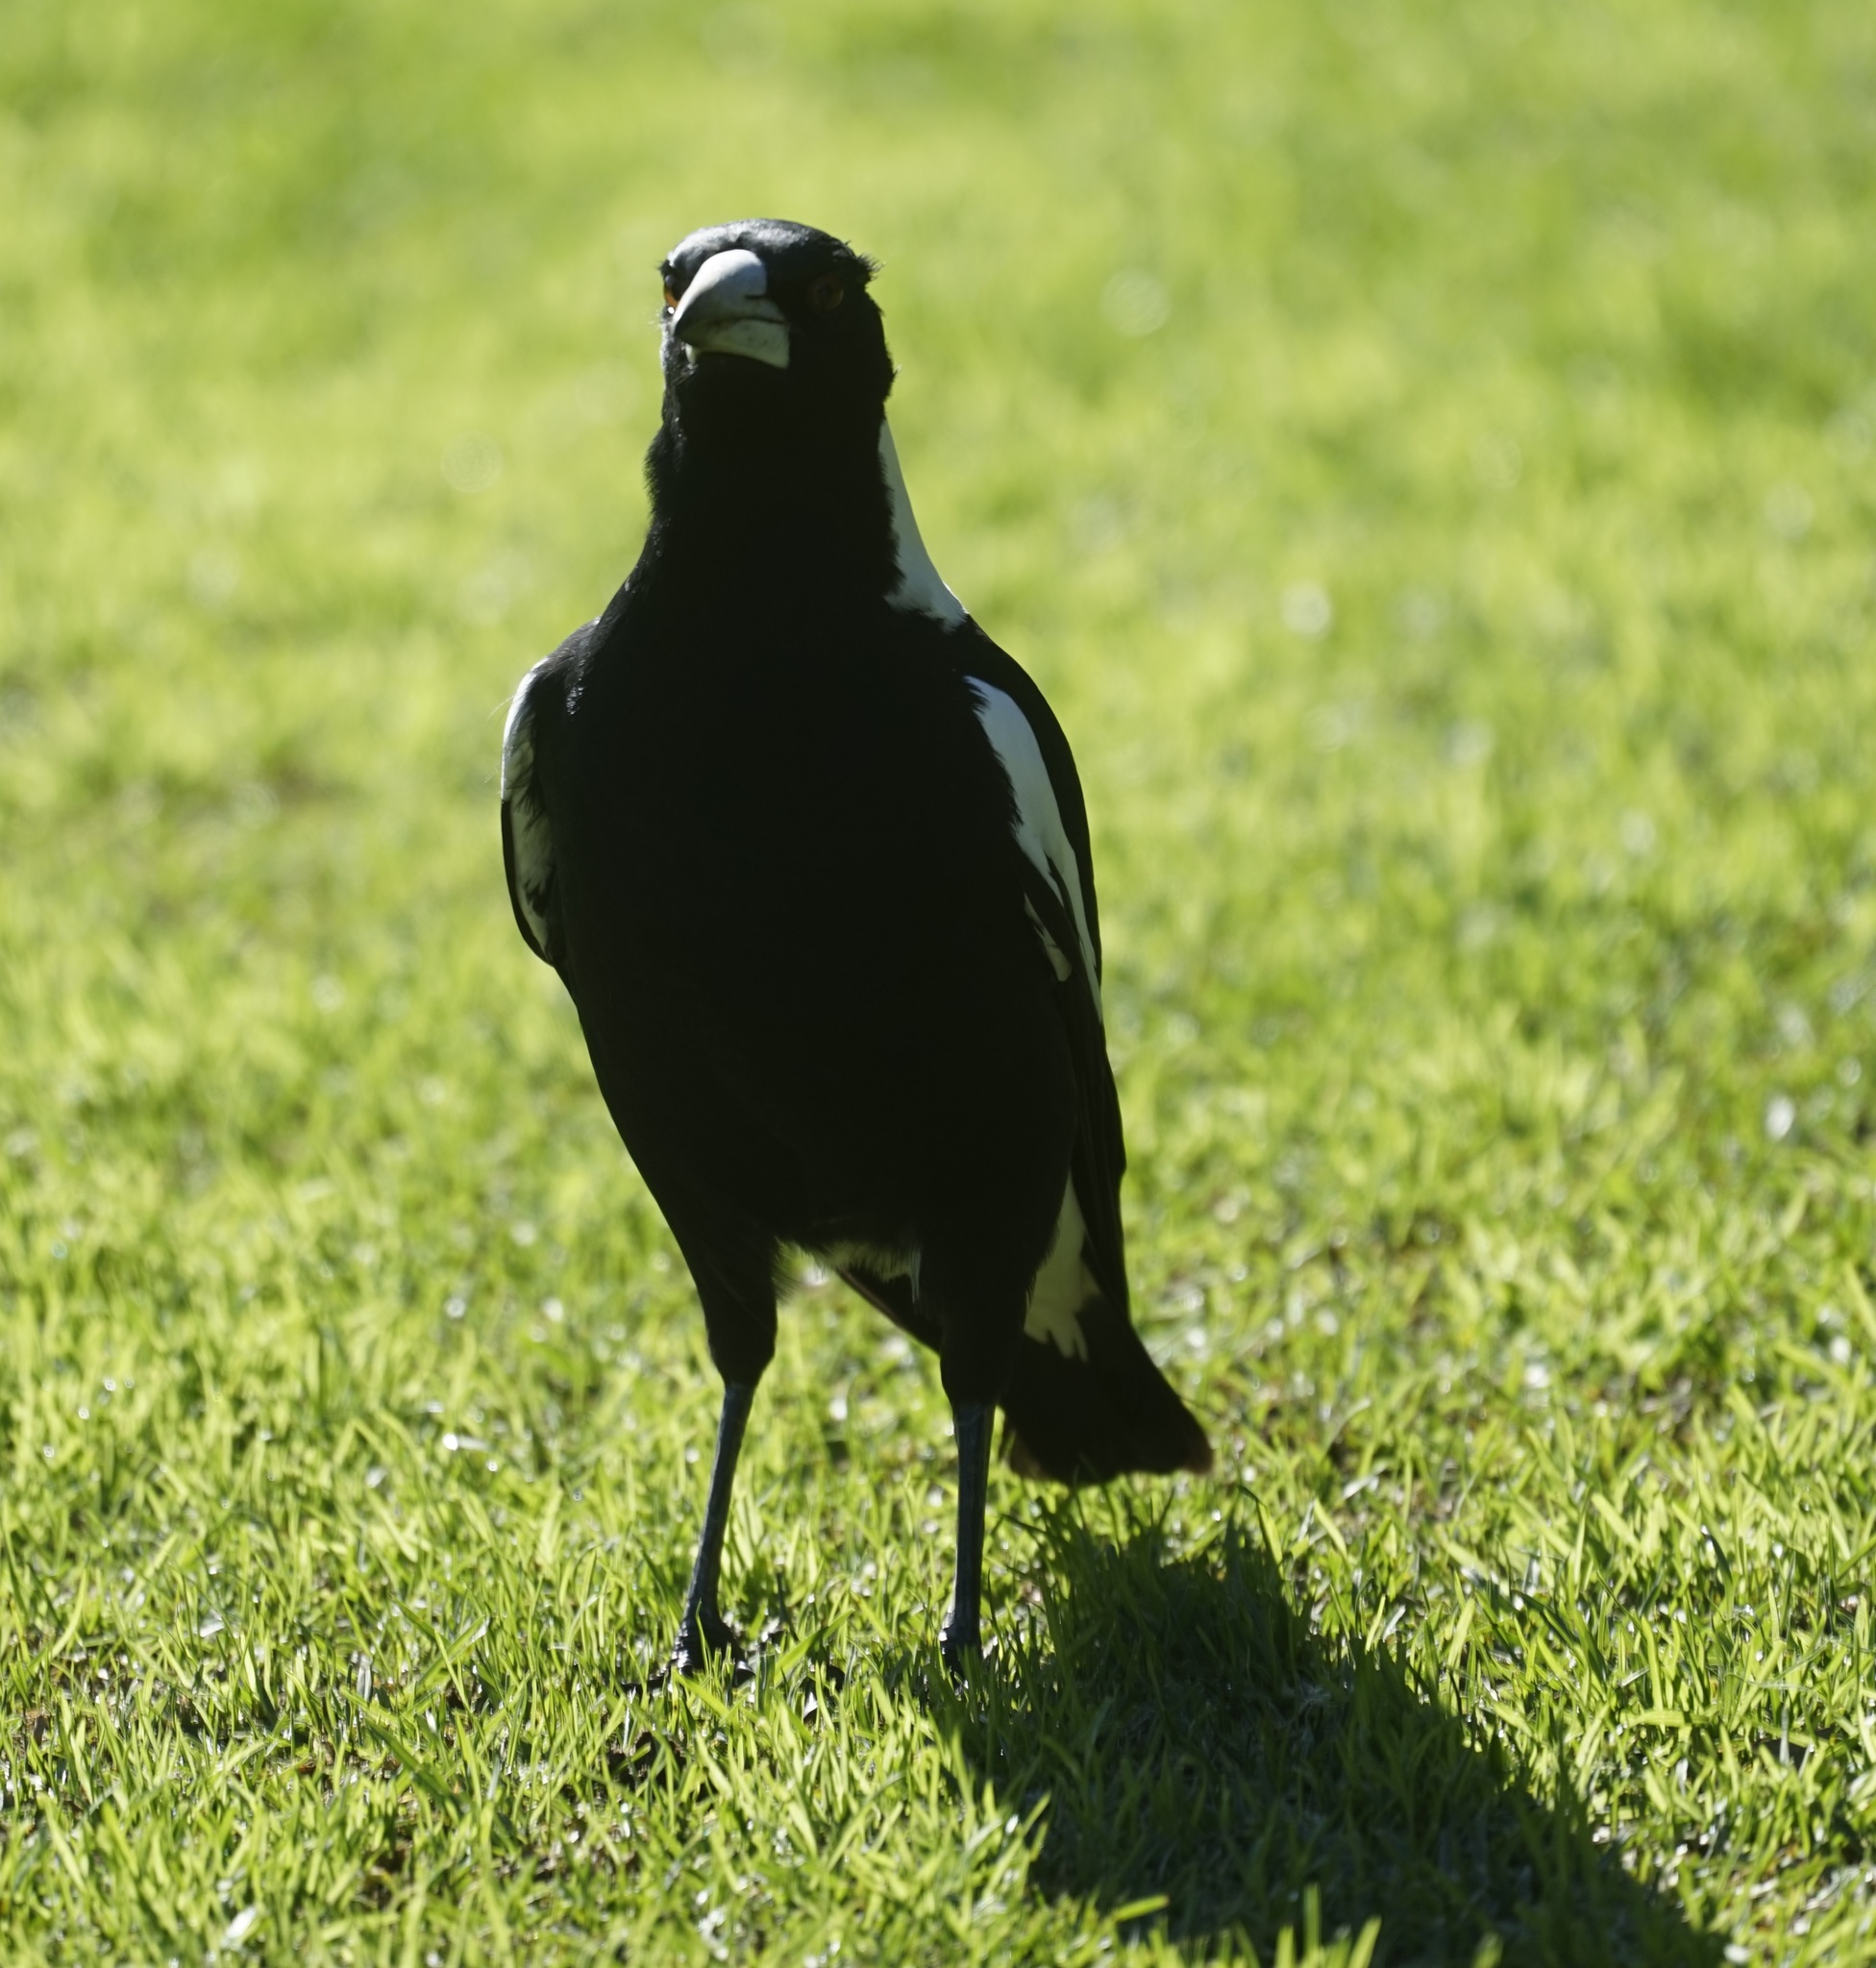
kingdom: Animalia
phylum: Chordata
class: Aves
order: Passeriformes
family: Cracticidae
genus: Gymnorhina
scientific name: Gymnorhina tibicen
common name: Australian magpie
